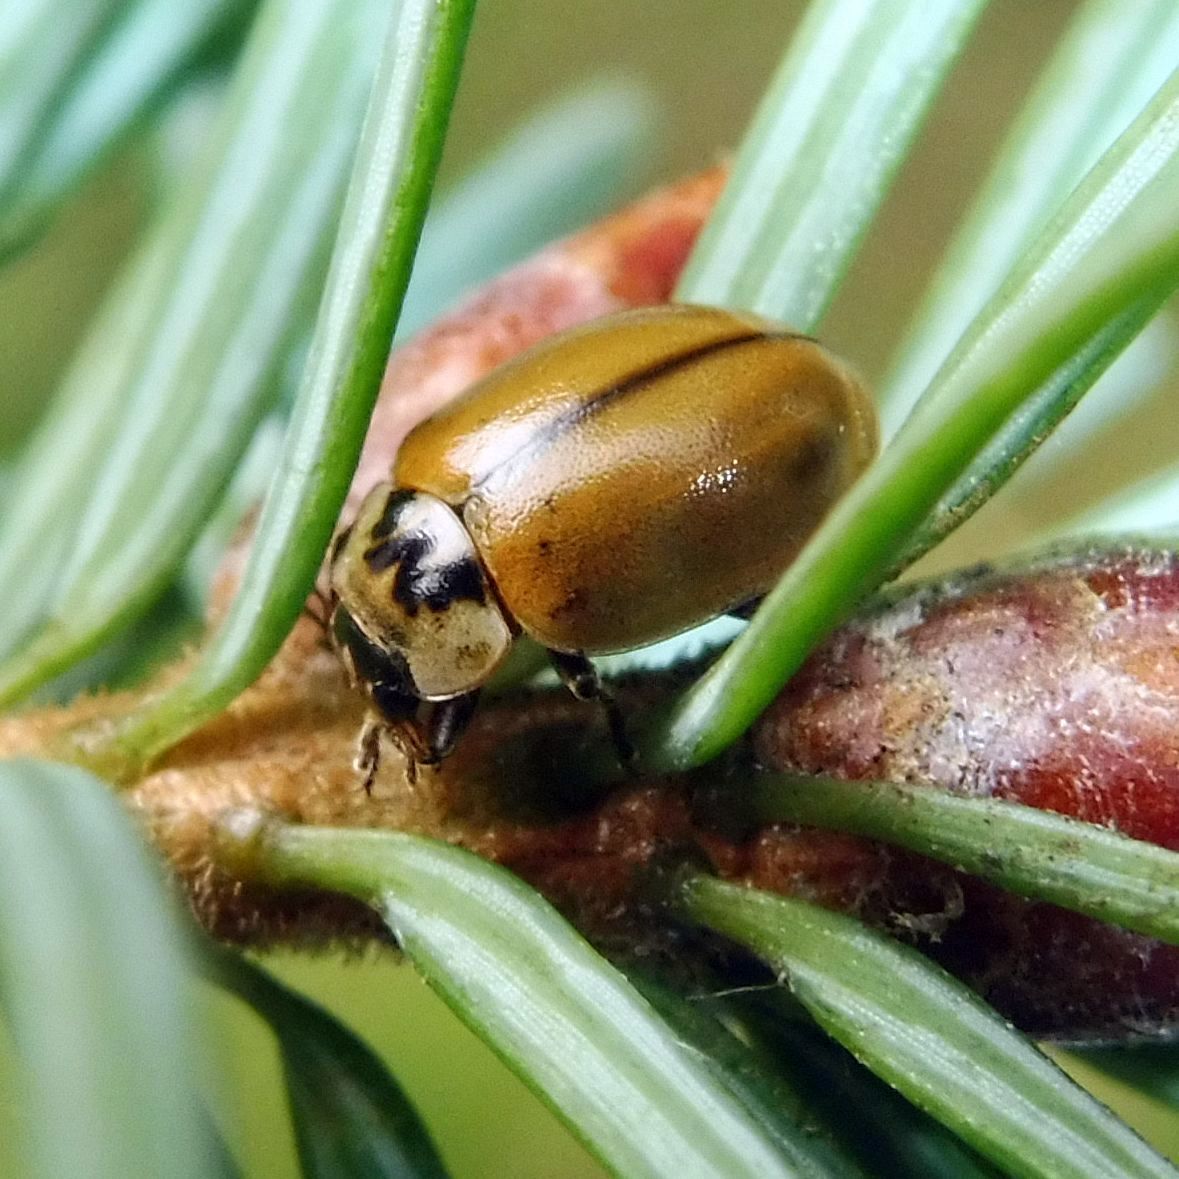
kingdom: Animalia
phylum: Arthropoda
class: Insecta
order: Coleoptera
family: Coccinellidae
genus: Aphidecta
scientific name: Aphidecta obliterata
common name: Larch ladybird
